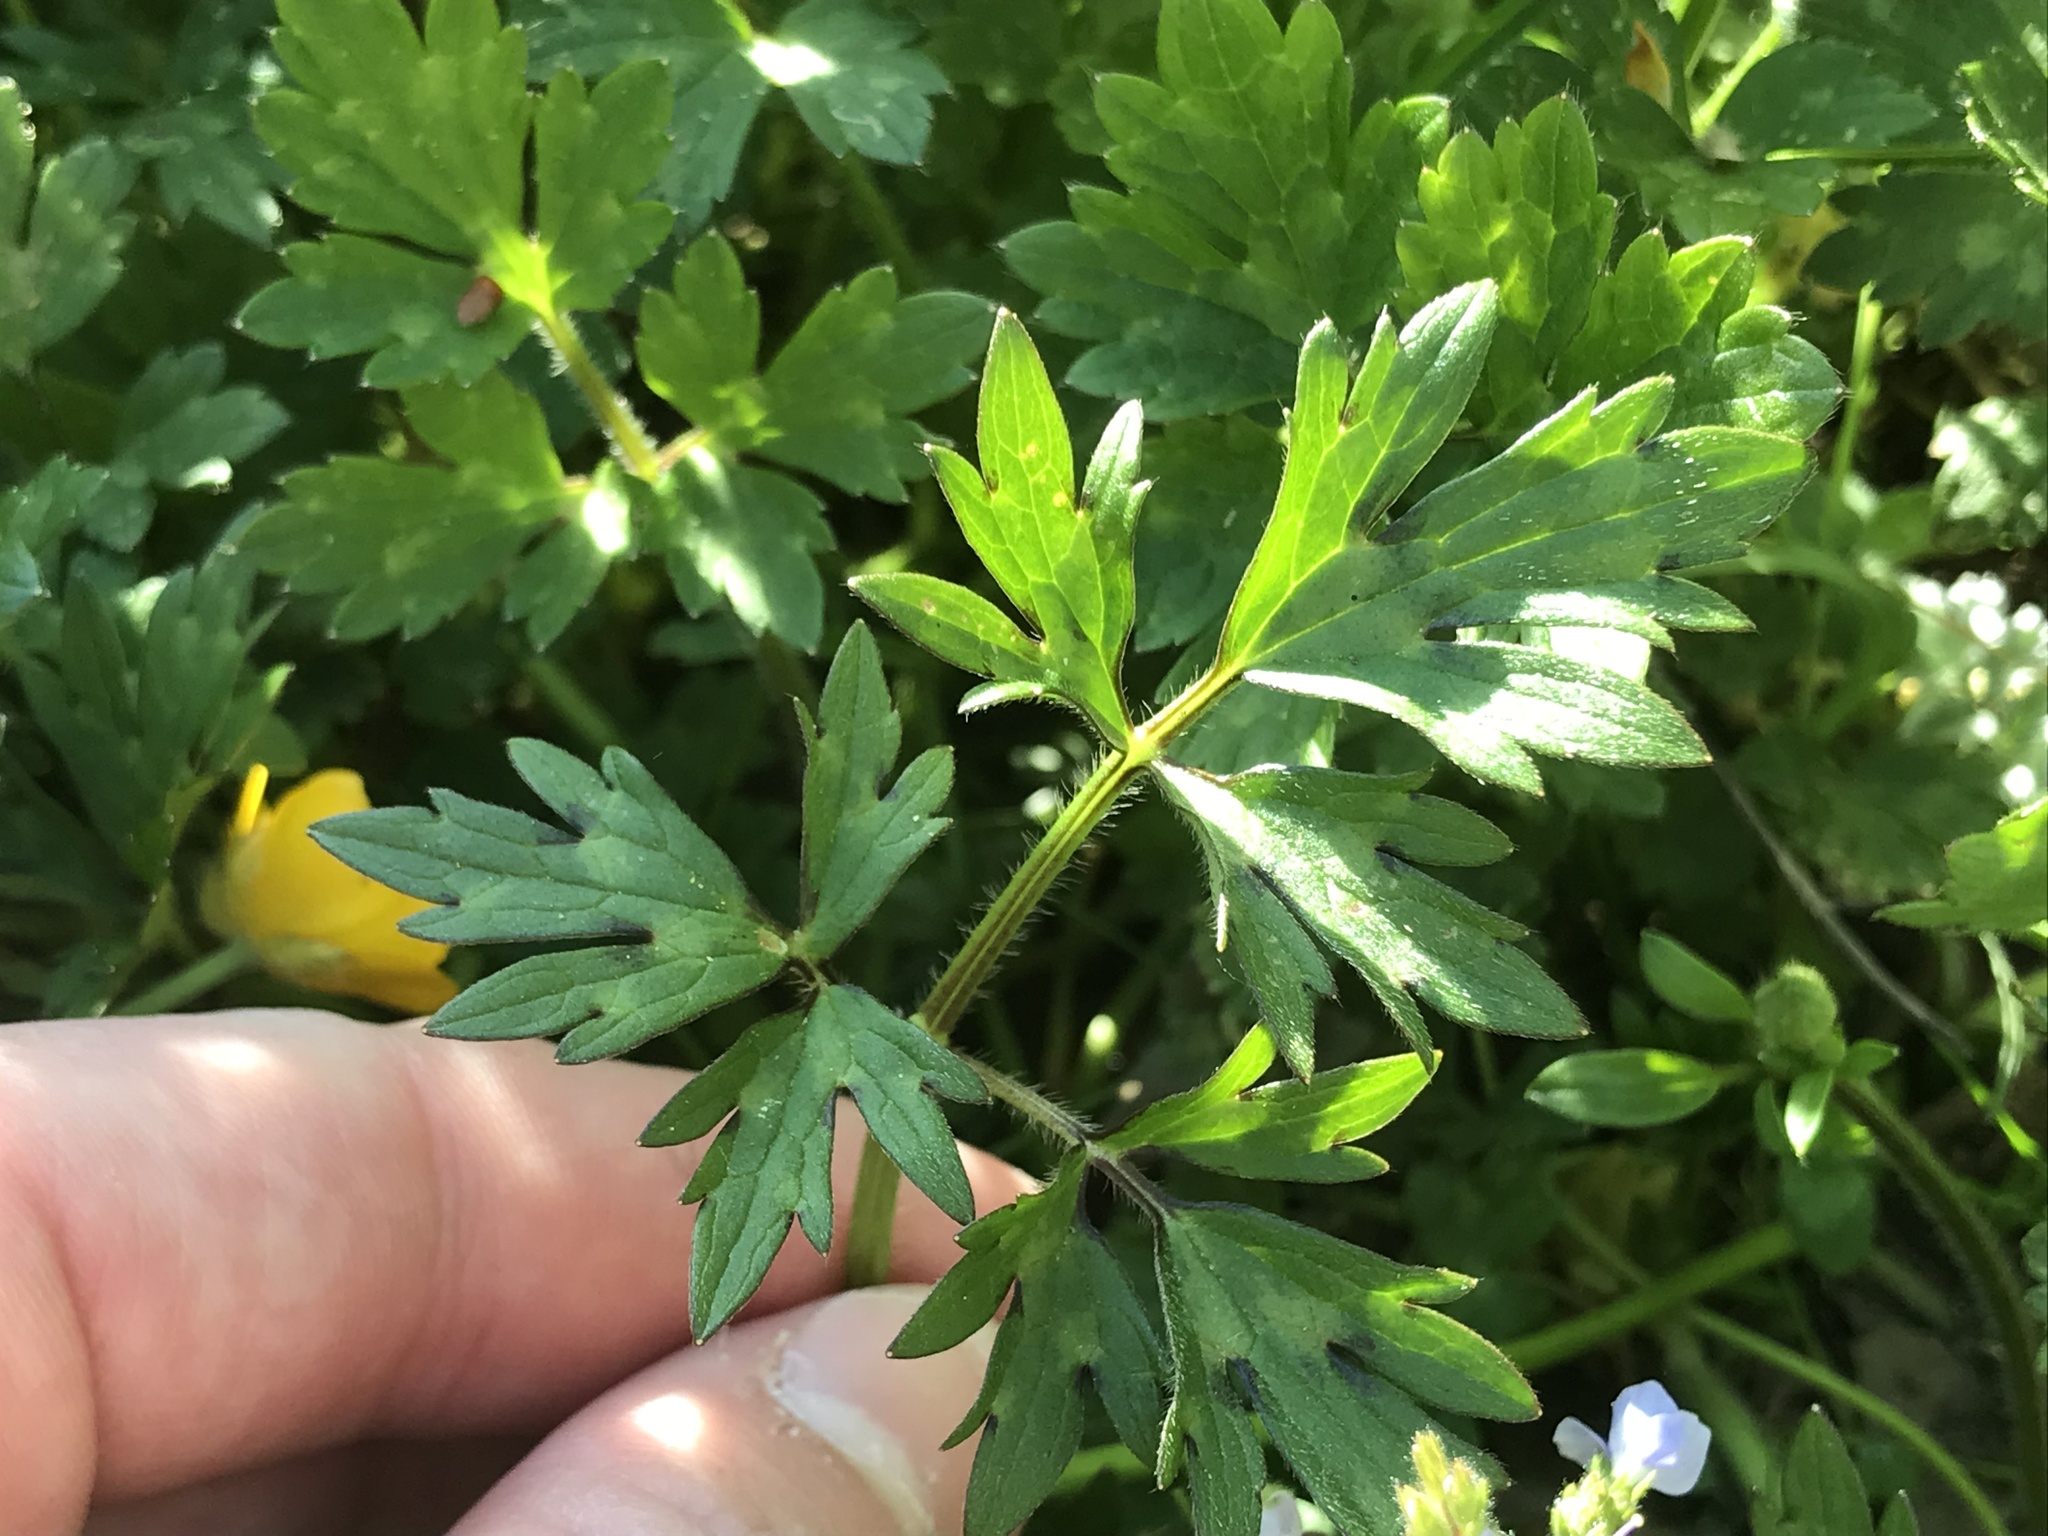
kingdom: Plantae
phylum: Tracheophyta
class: Magnoliopsida
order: Ranunculales
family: Ranunculaceae
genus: Ranunculus
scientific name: Ranunculus repens
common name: Creeping buttercup
